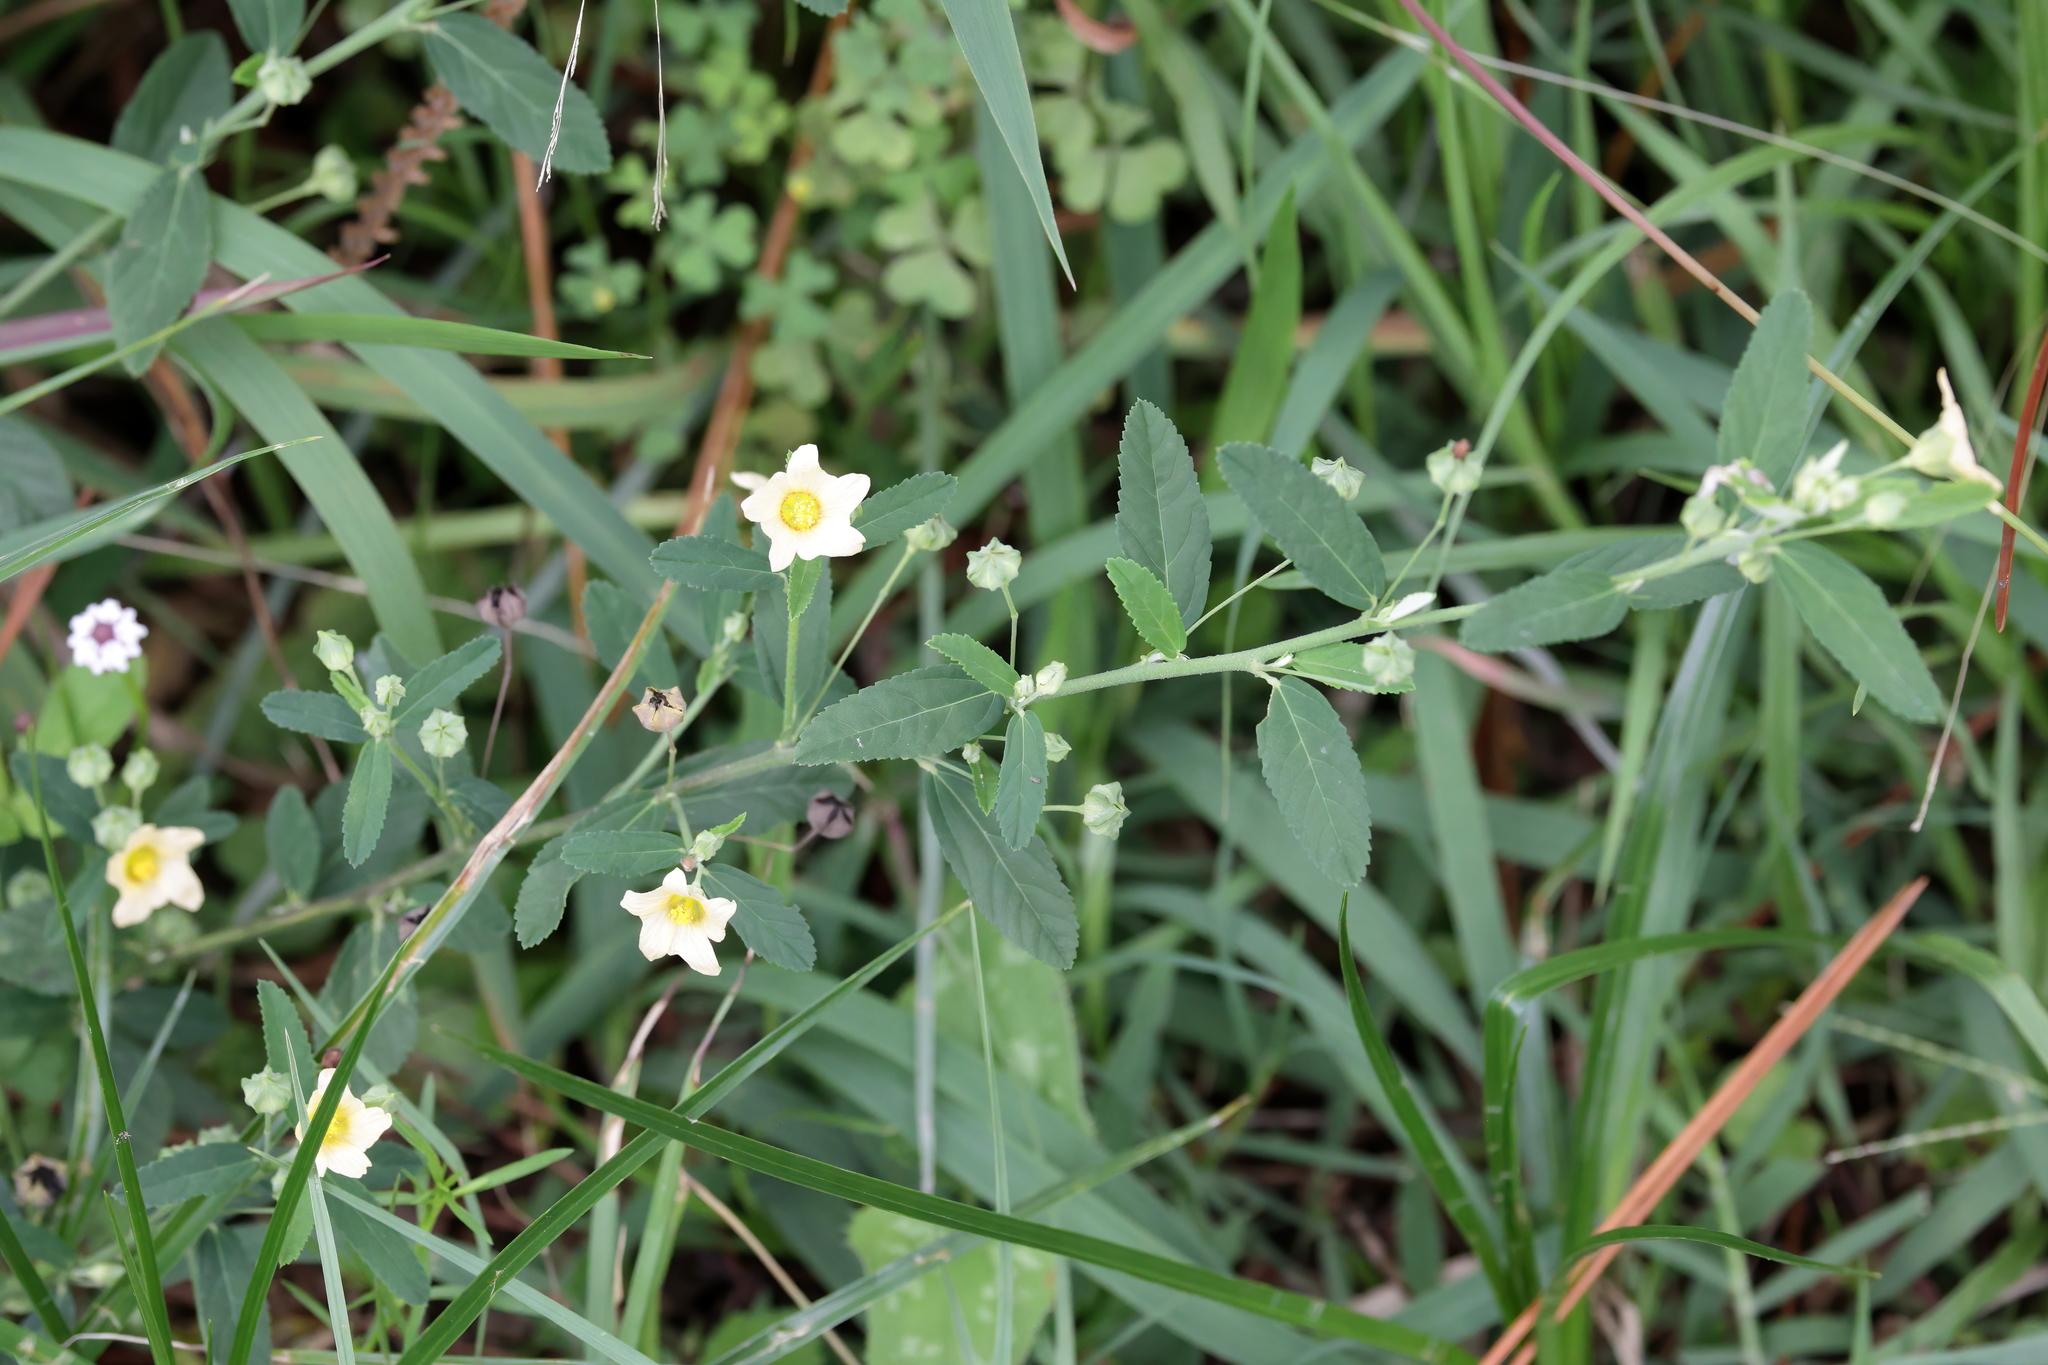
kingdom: Plantae
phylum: Tracheophyta
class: Magnoliopsida
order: Malvales
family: Malvaceae
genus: Sida
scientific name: Sida rhombifolia
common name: Queensland-hemp
